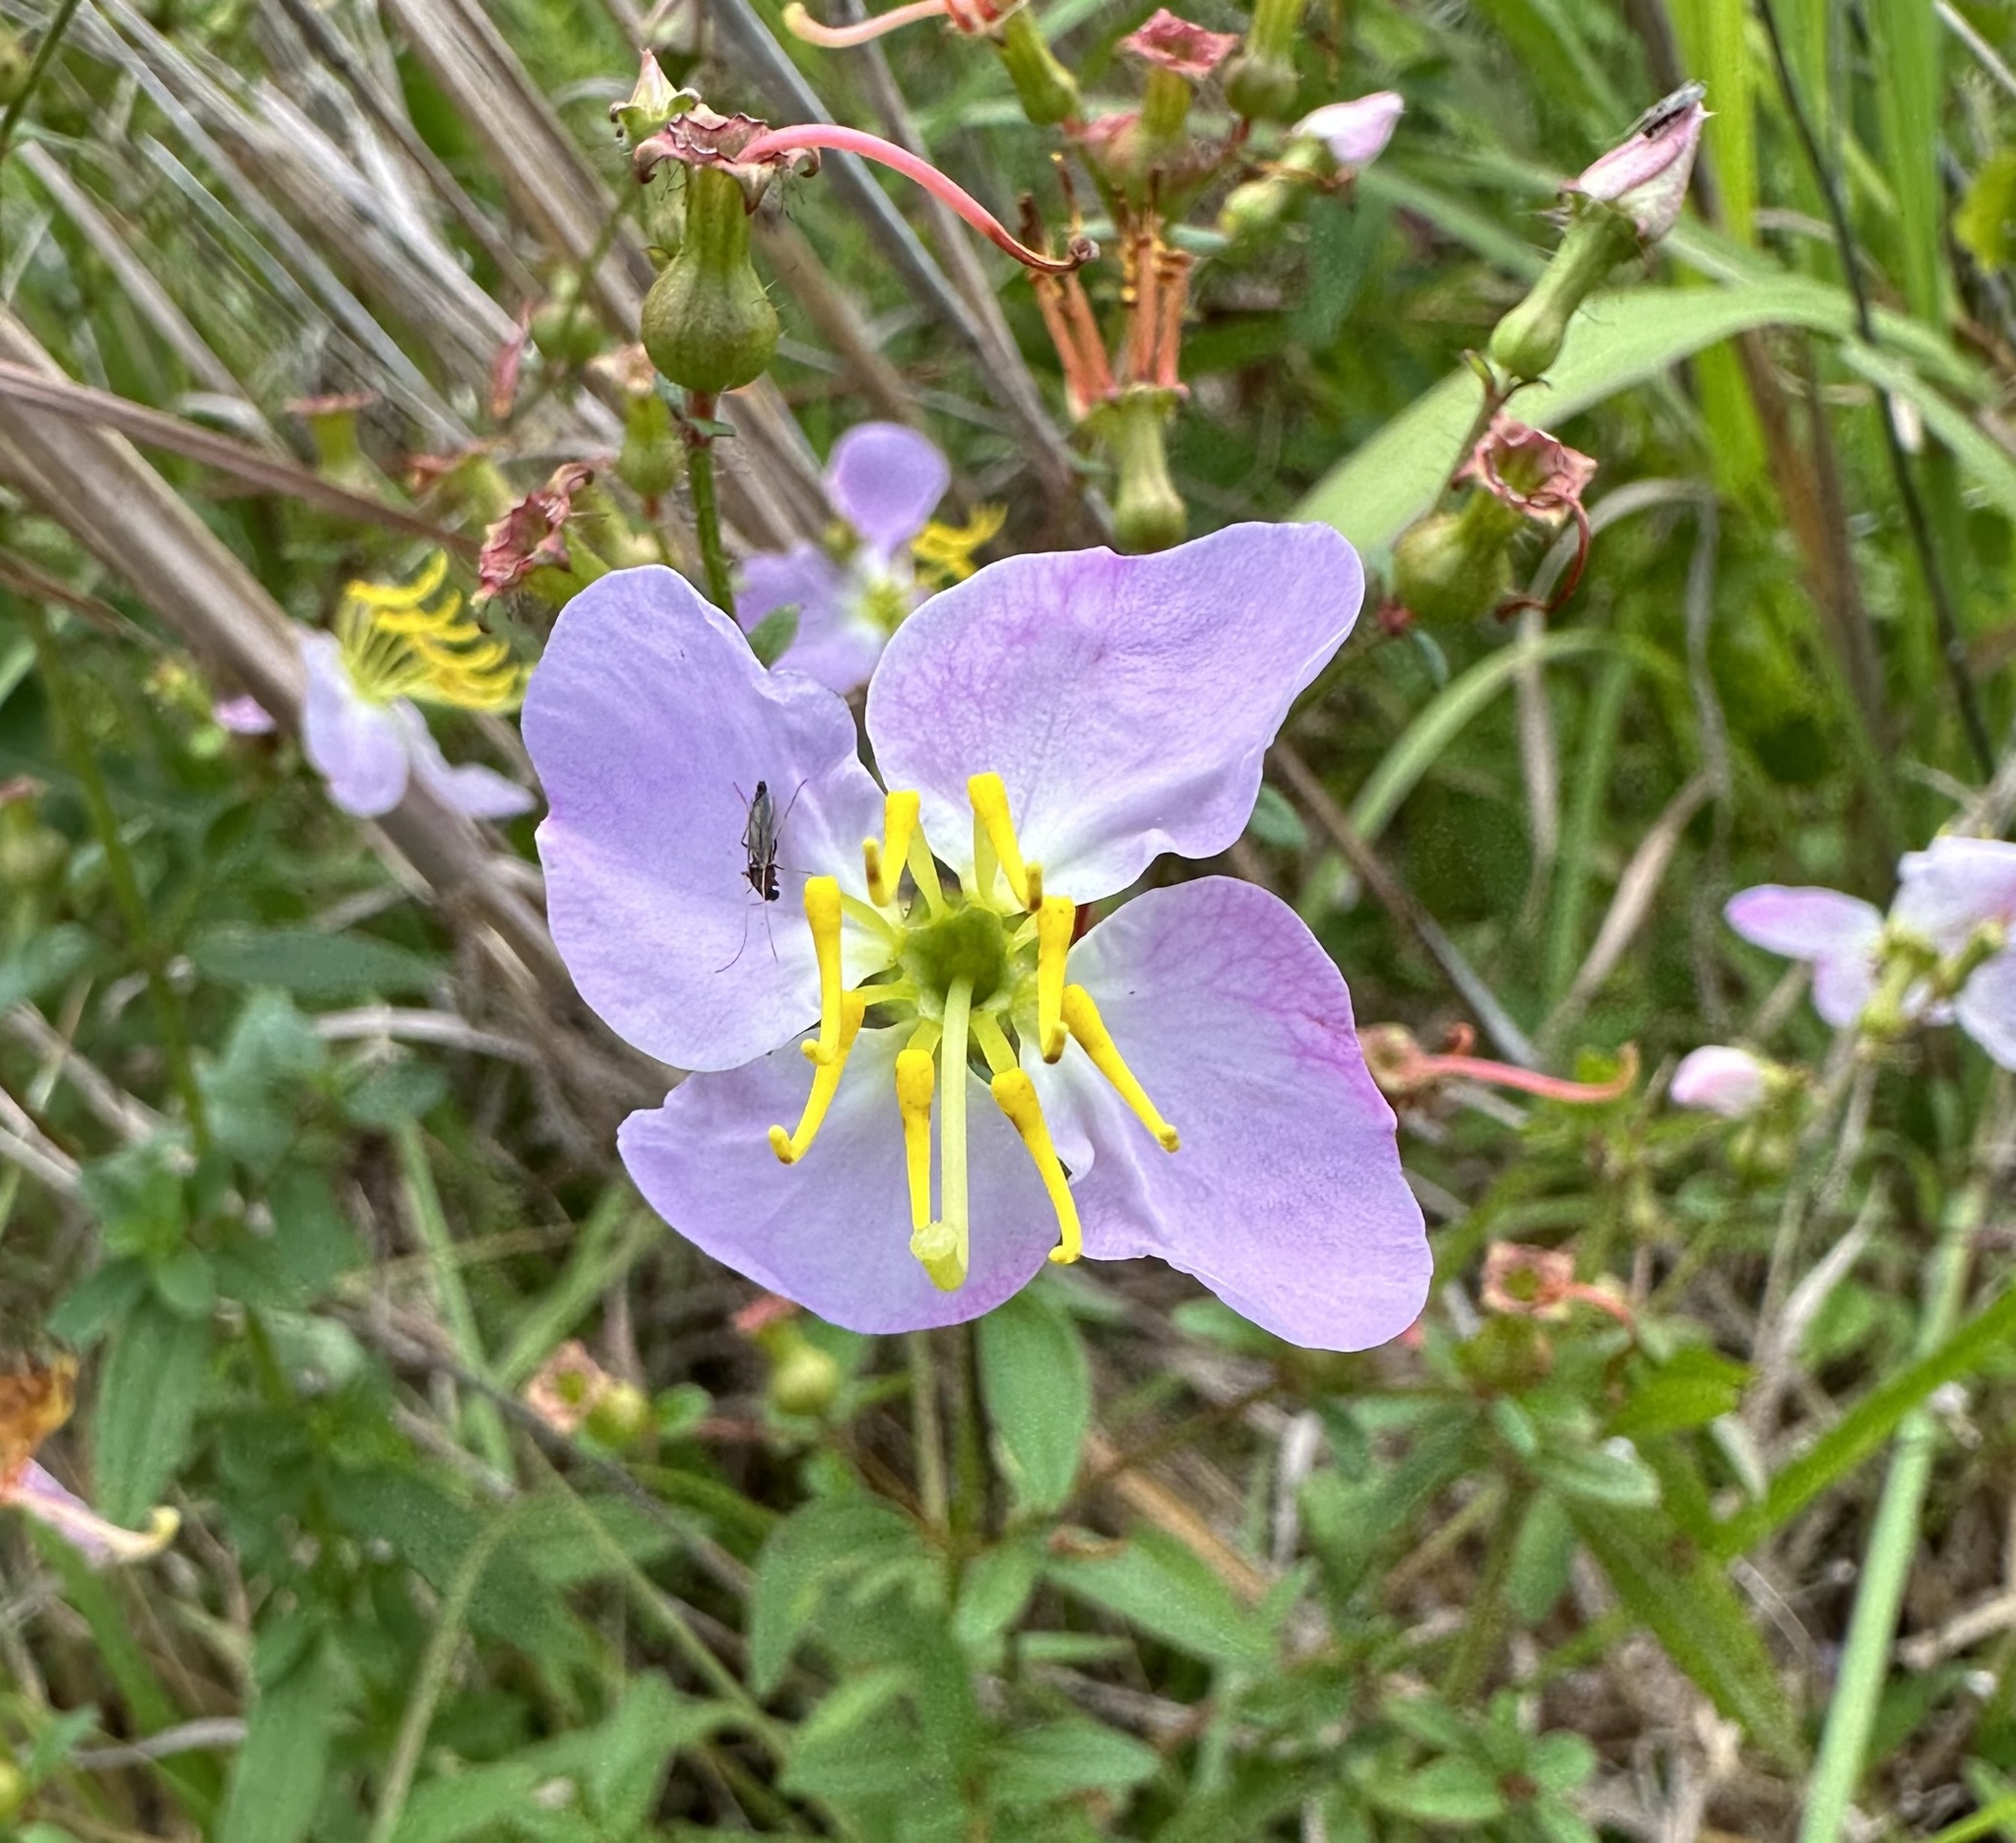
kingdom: Plantae
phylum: Tracheophyta
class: Magnoliopsida
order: Myrtales
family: Melastomataceae
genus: Rhexia
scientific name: Rhexia mariana
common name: Dull meadow-pitcher
